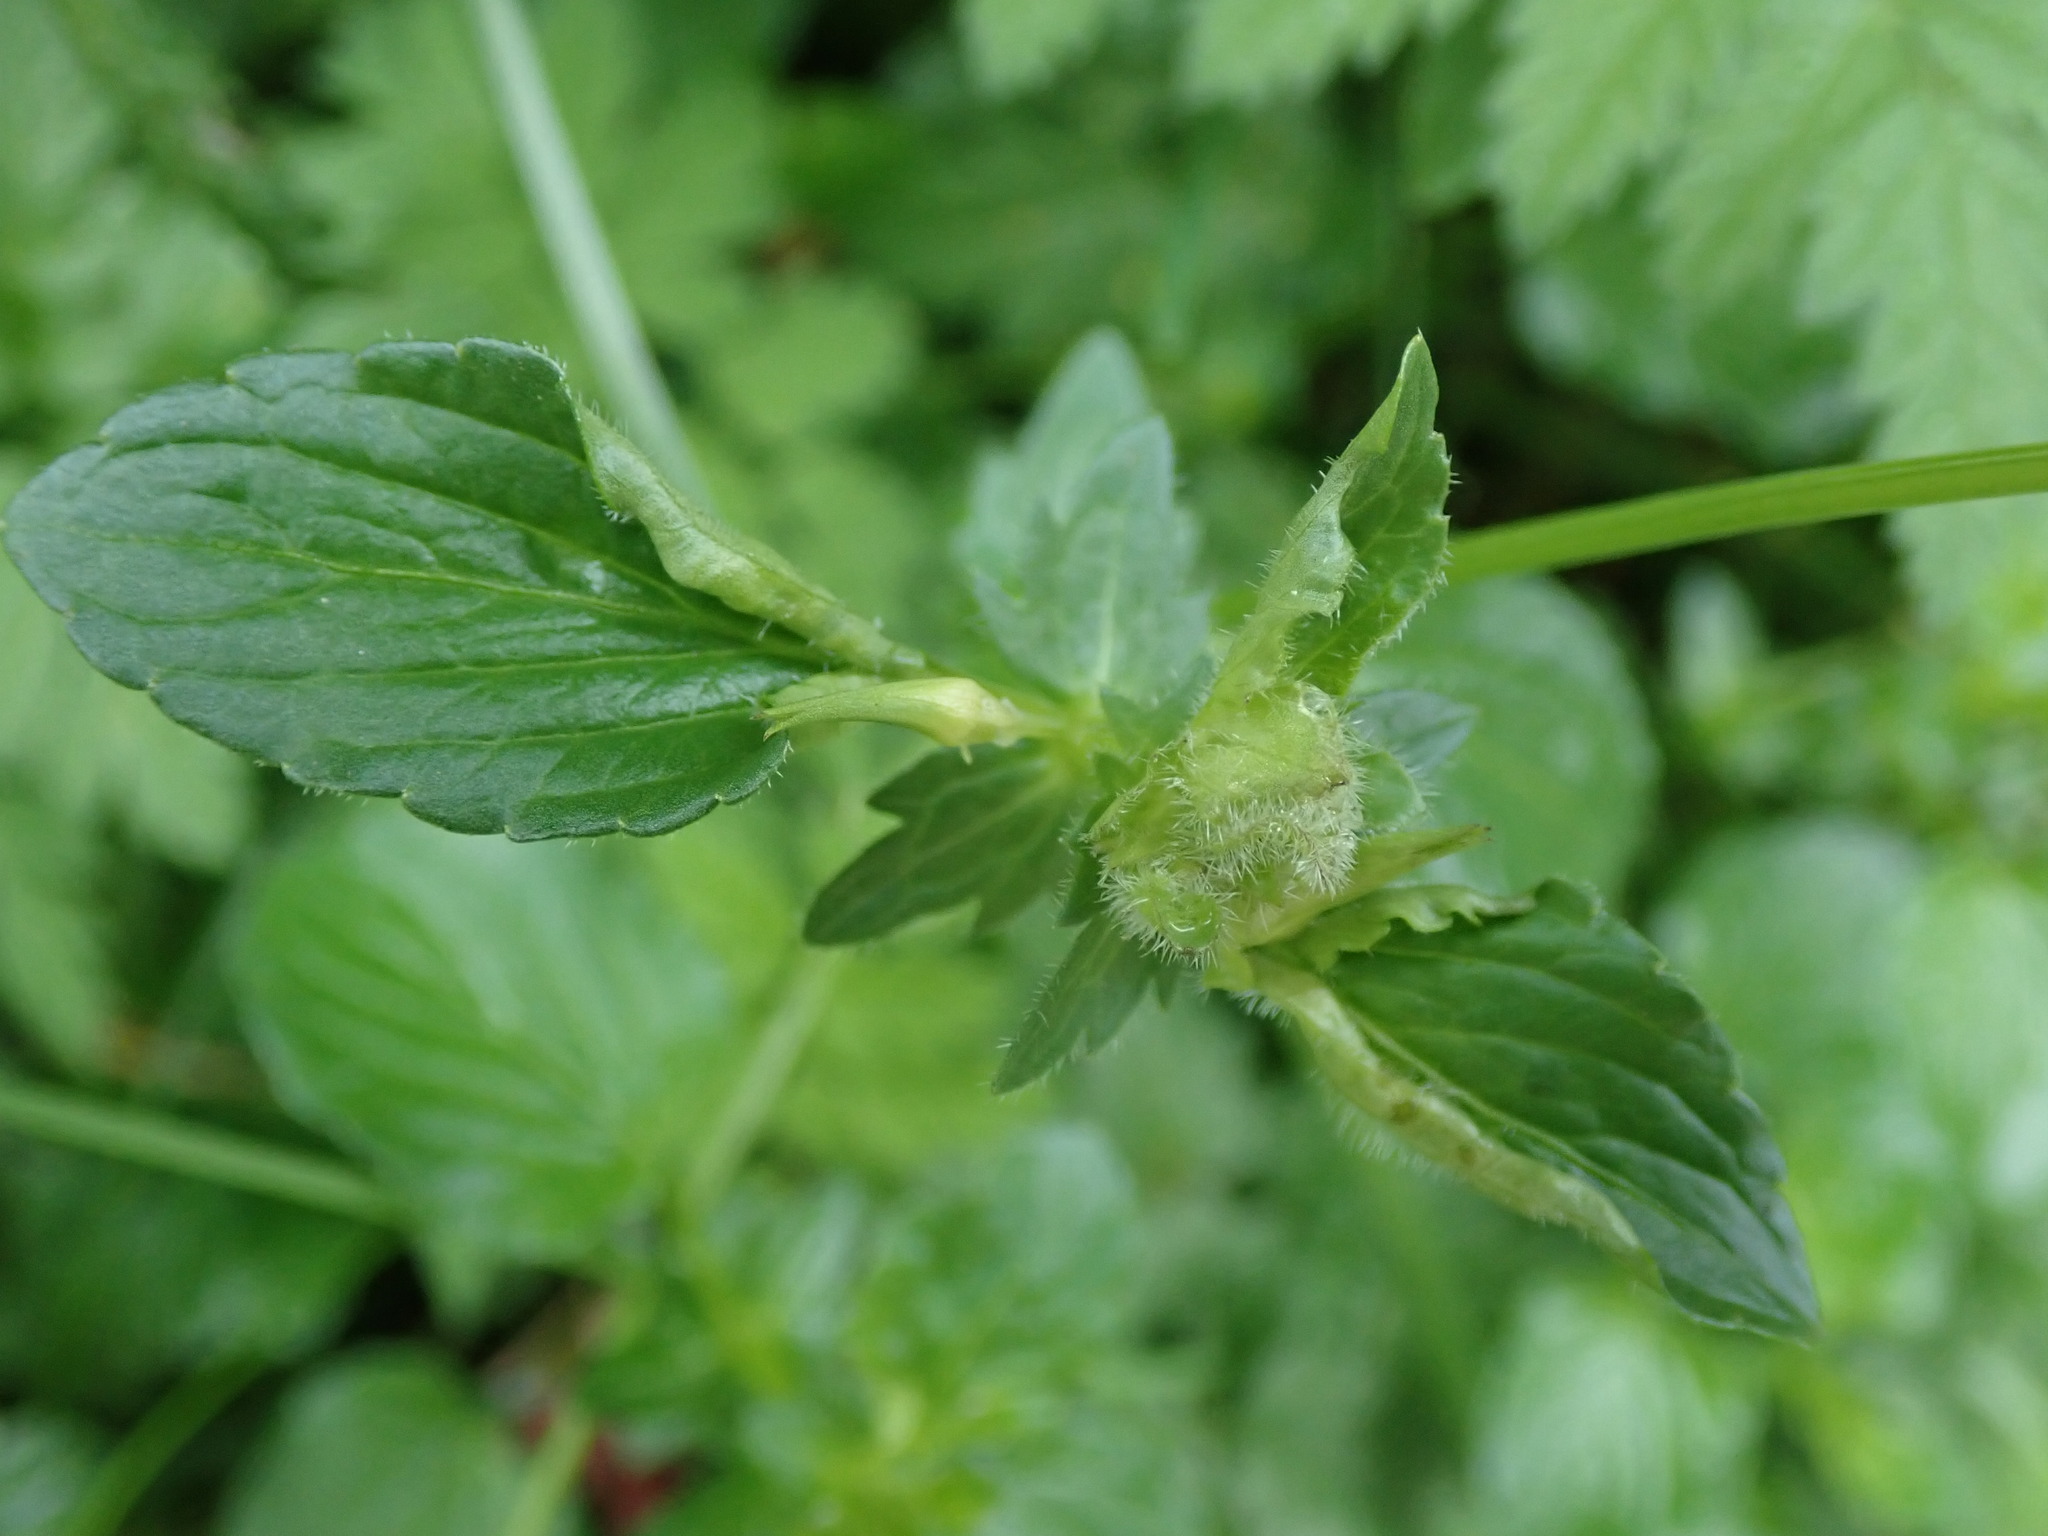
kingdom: Plantae
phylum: Tracheophyta
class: Magnoliopsida
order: Malpighiales
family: Violaceae
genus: Viola
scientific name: Viola cornuta
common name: Horned pansy
